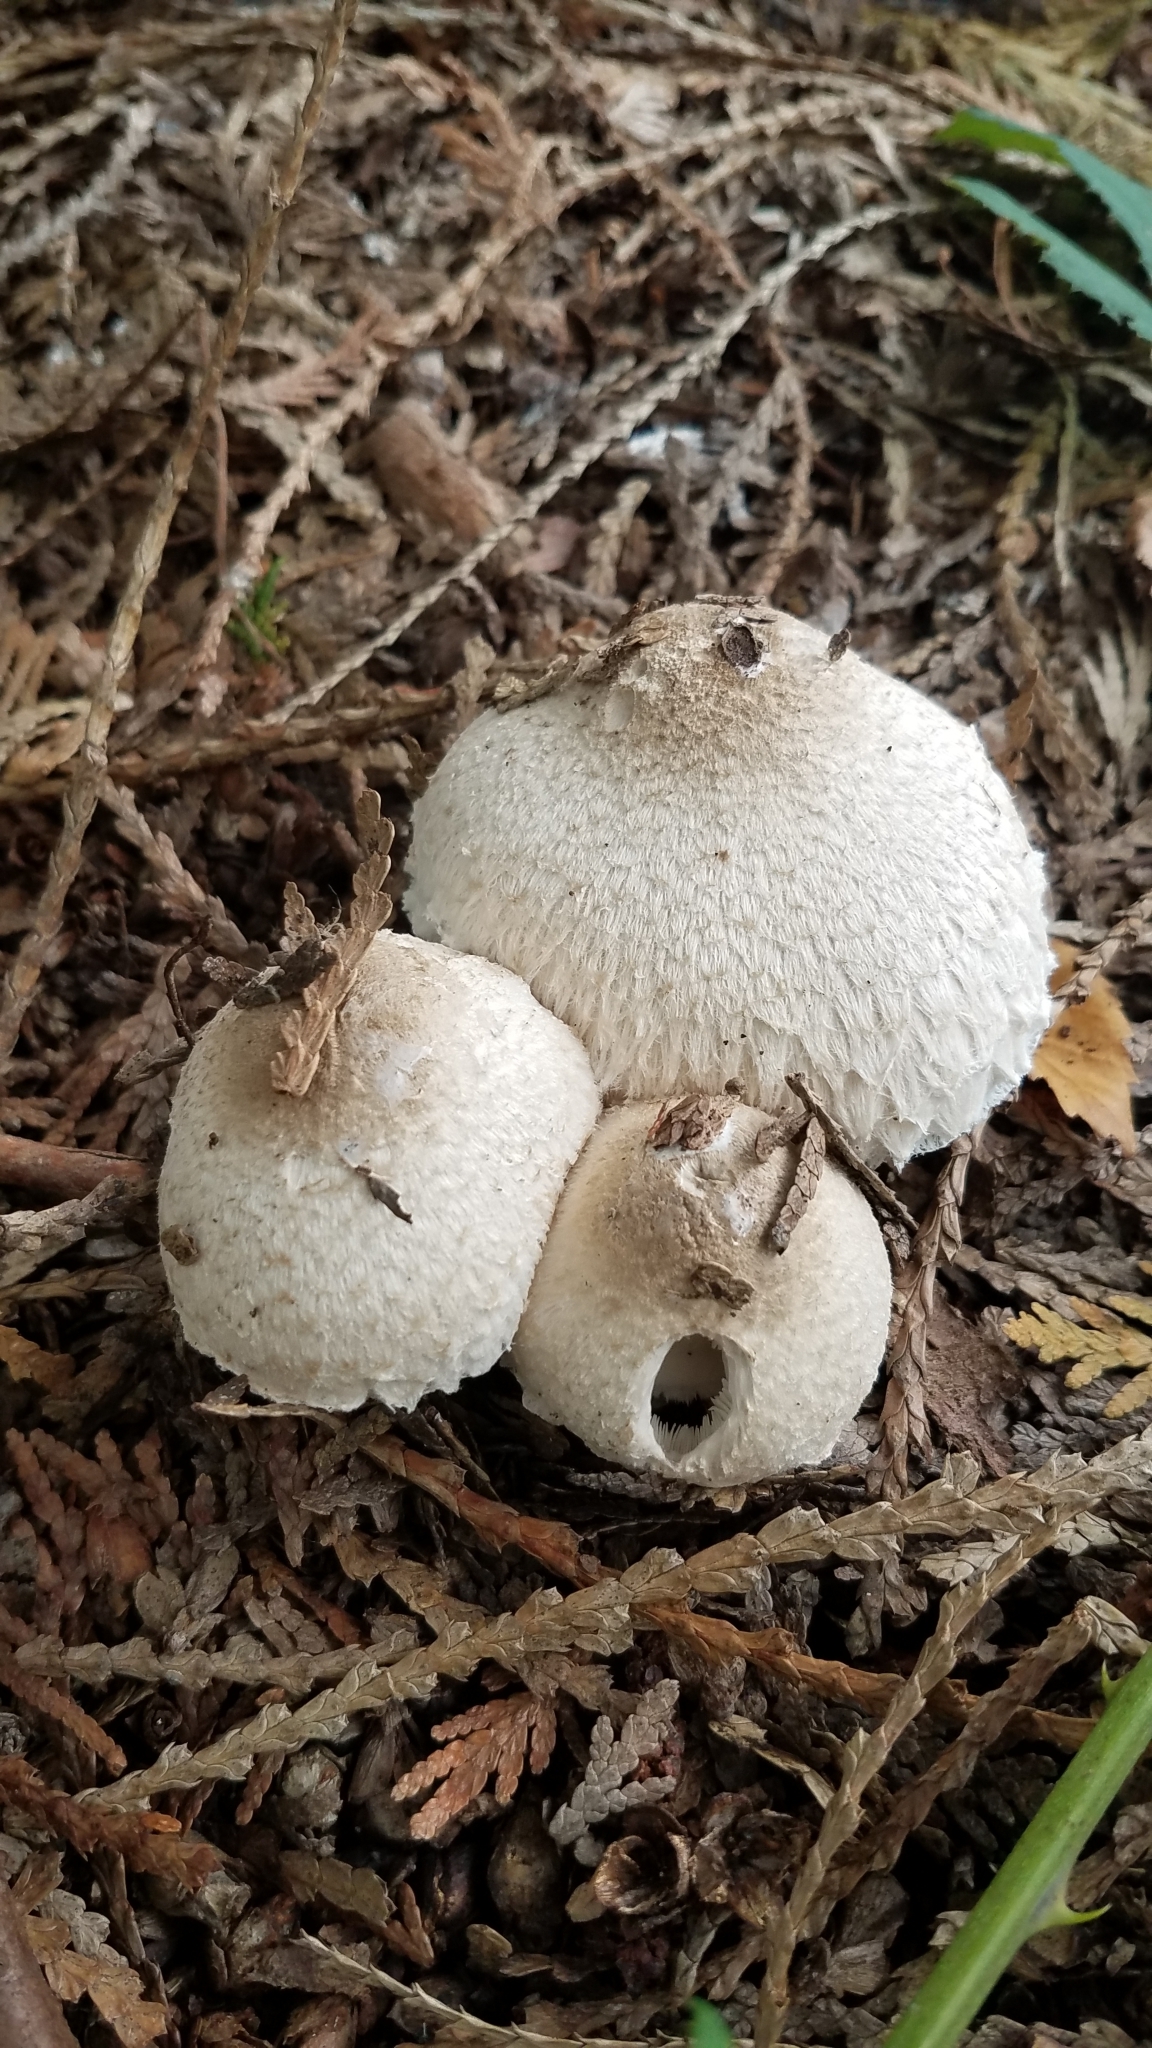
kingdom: Fungi
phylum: Basidiomycota
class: Agaricomycetes
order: Agaricales
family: Agaricaceae
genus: Leucocoprinus
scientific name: Leucocoprinus cepistipes
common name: Onion-stalk parasol
